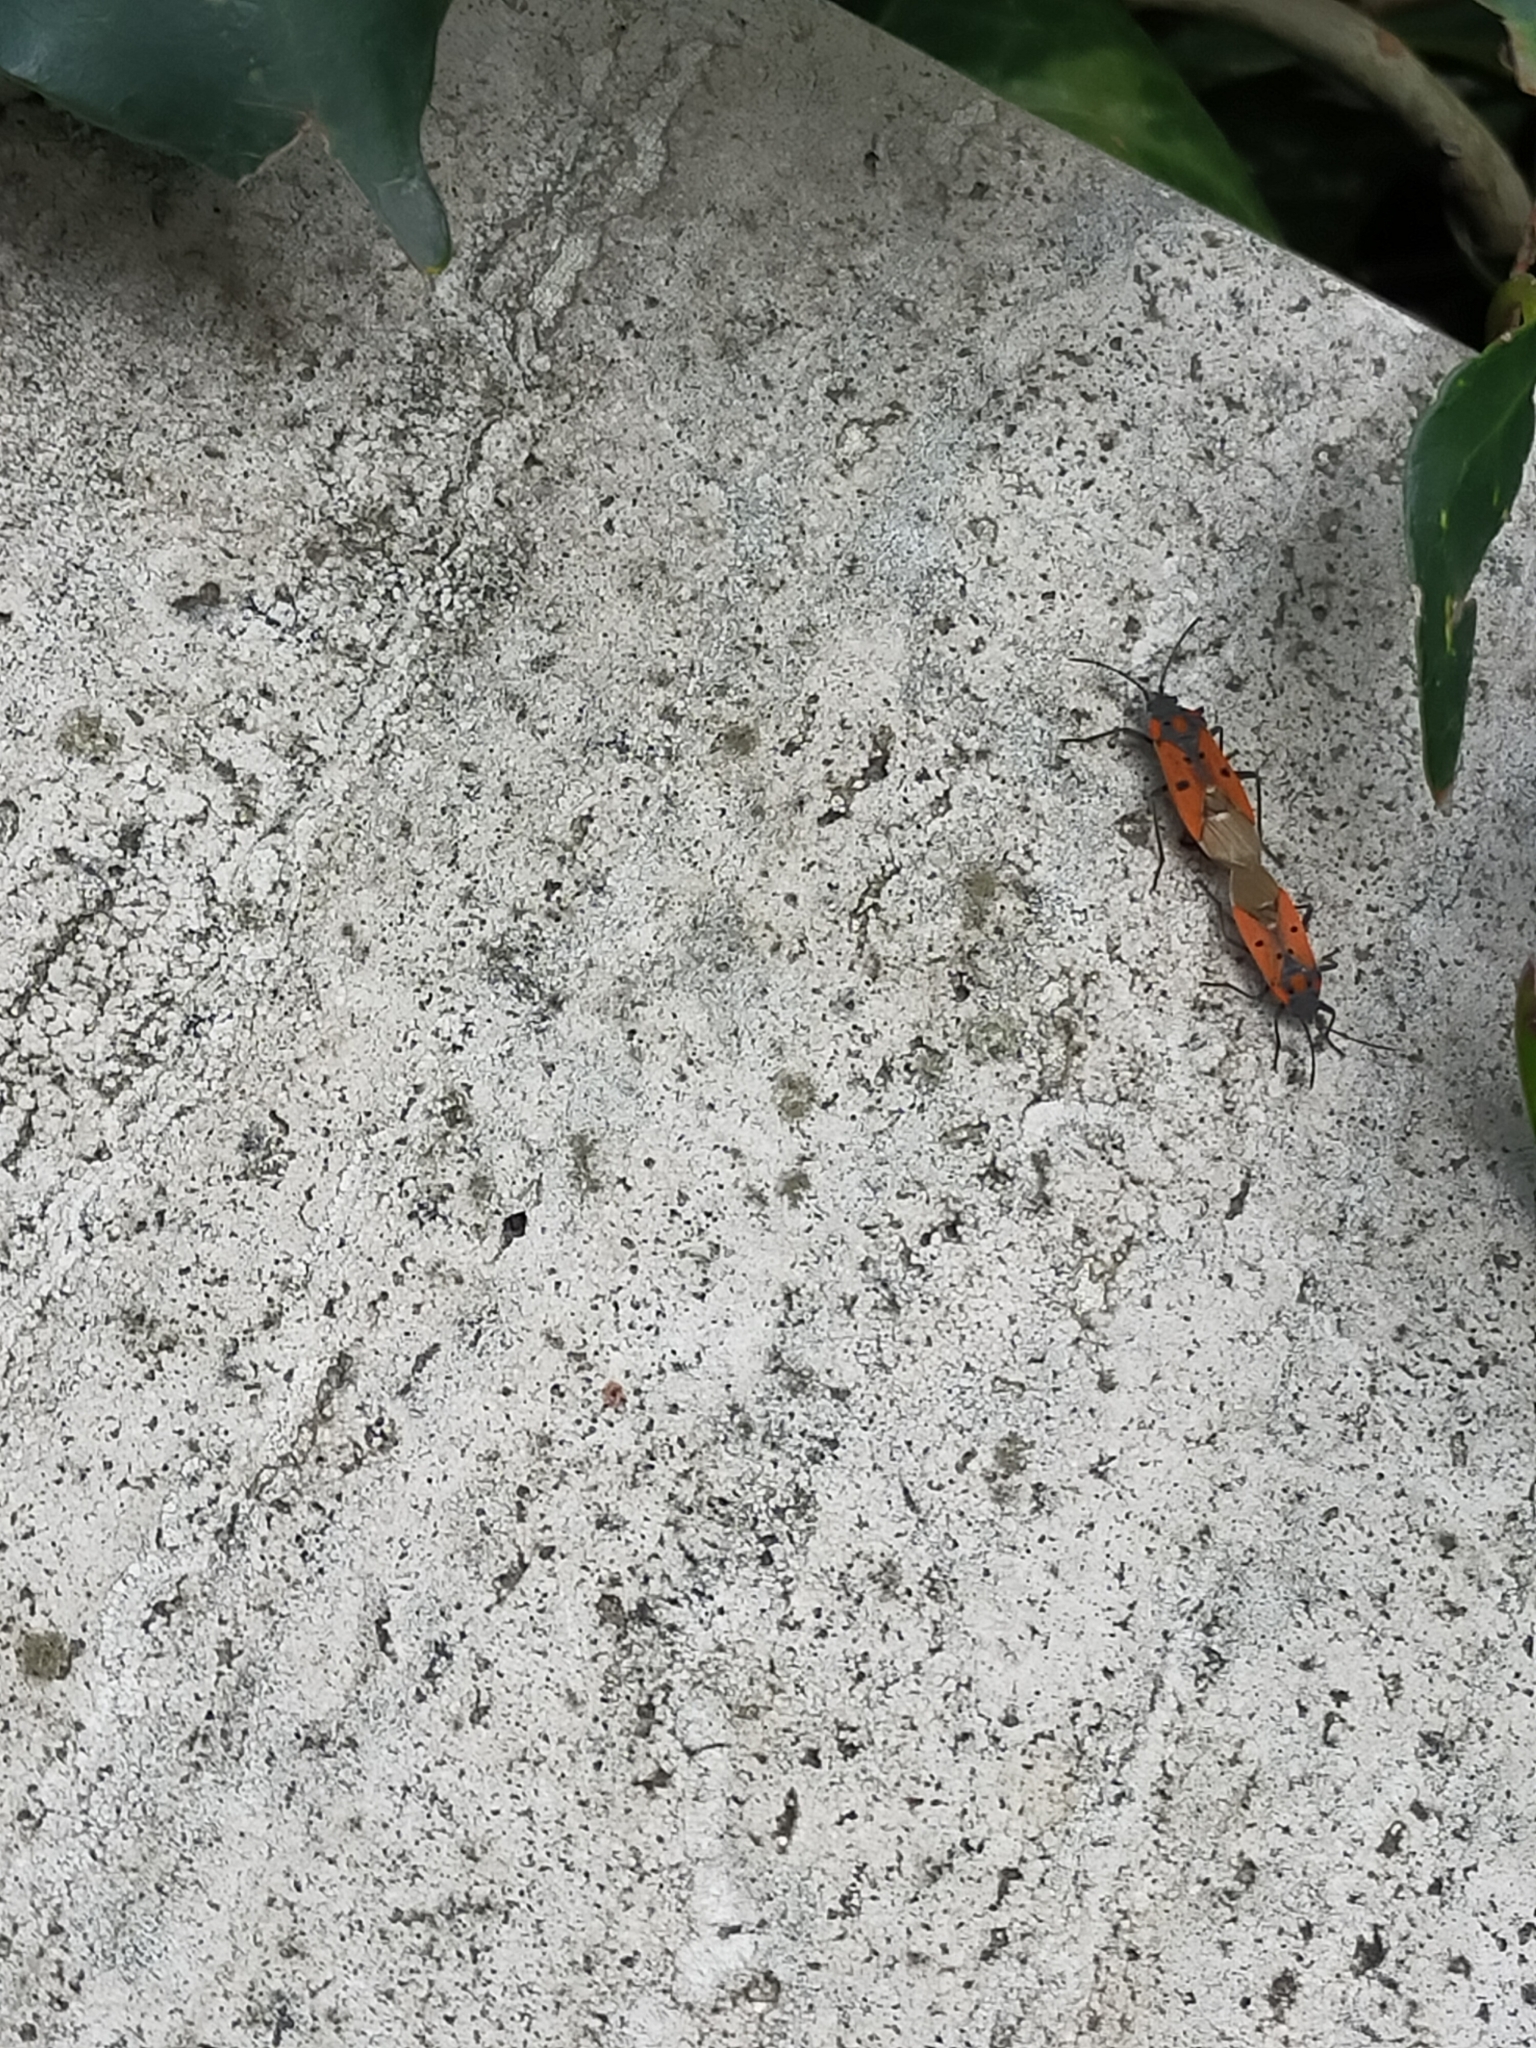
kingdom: Animalia
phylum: Arthropoda
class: Insecta
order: Hemiptera
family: Lygaeidae
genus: Lygaeus
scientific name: Lygaeus creticus
